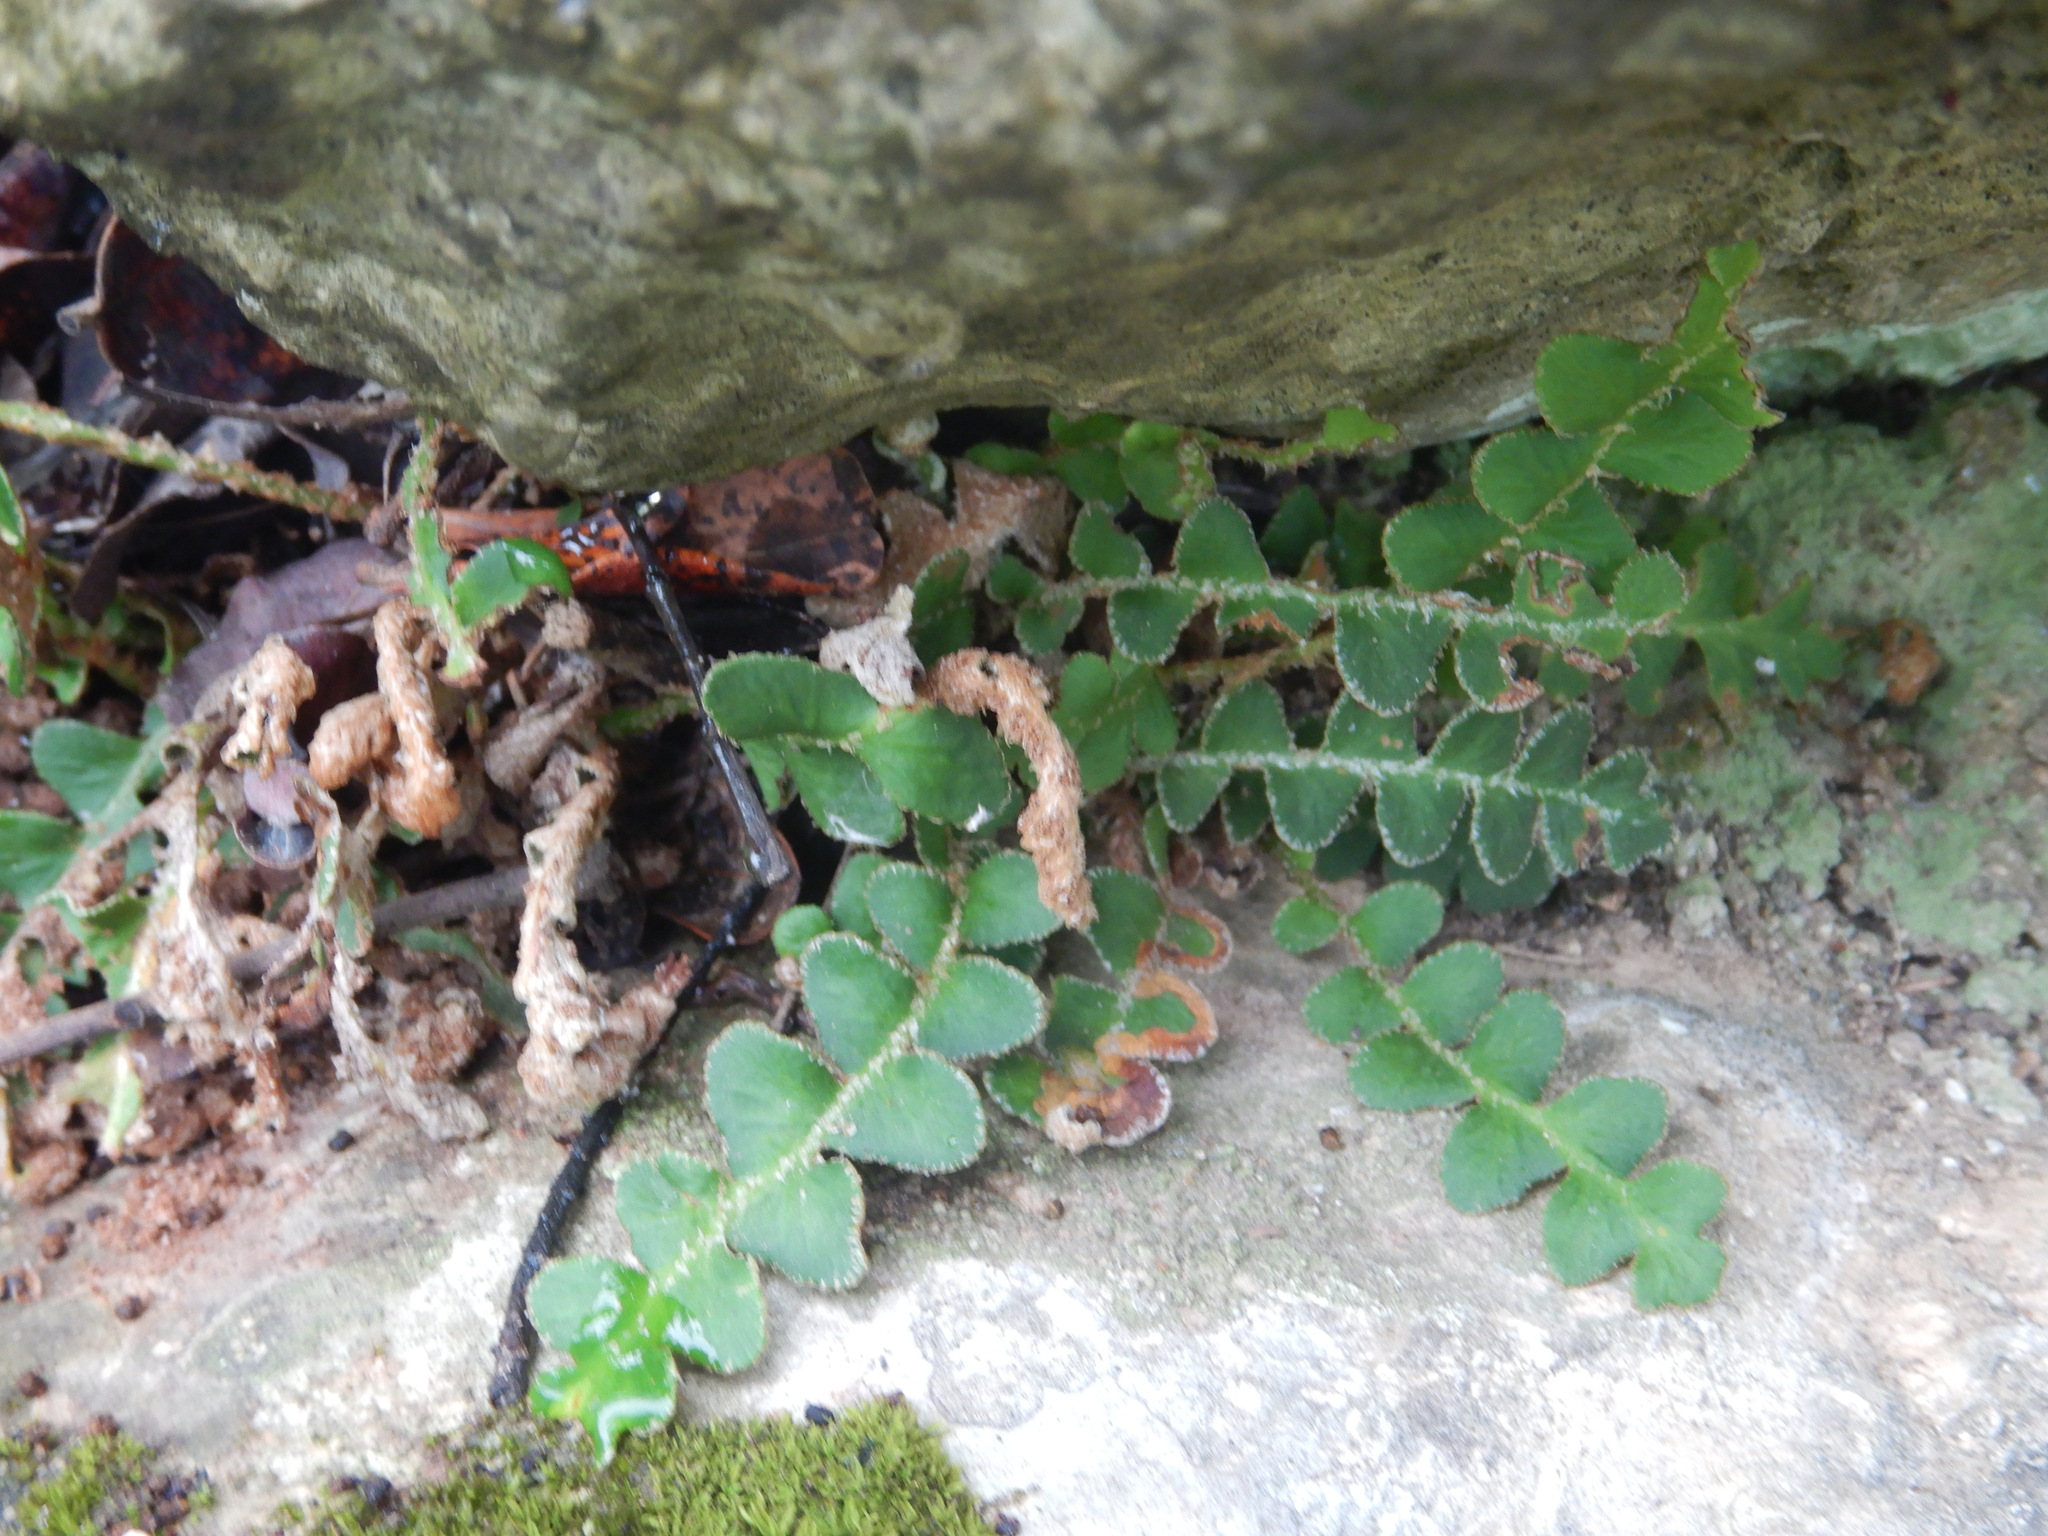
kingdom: Plantae
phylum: Tracheophyta
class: Polypodiopsida
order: Polypodiales
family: Aspleniaceae
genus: Asplenium
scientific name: Asplenium ceterach
